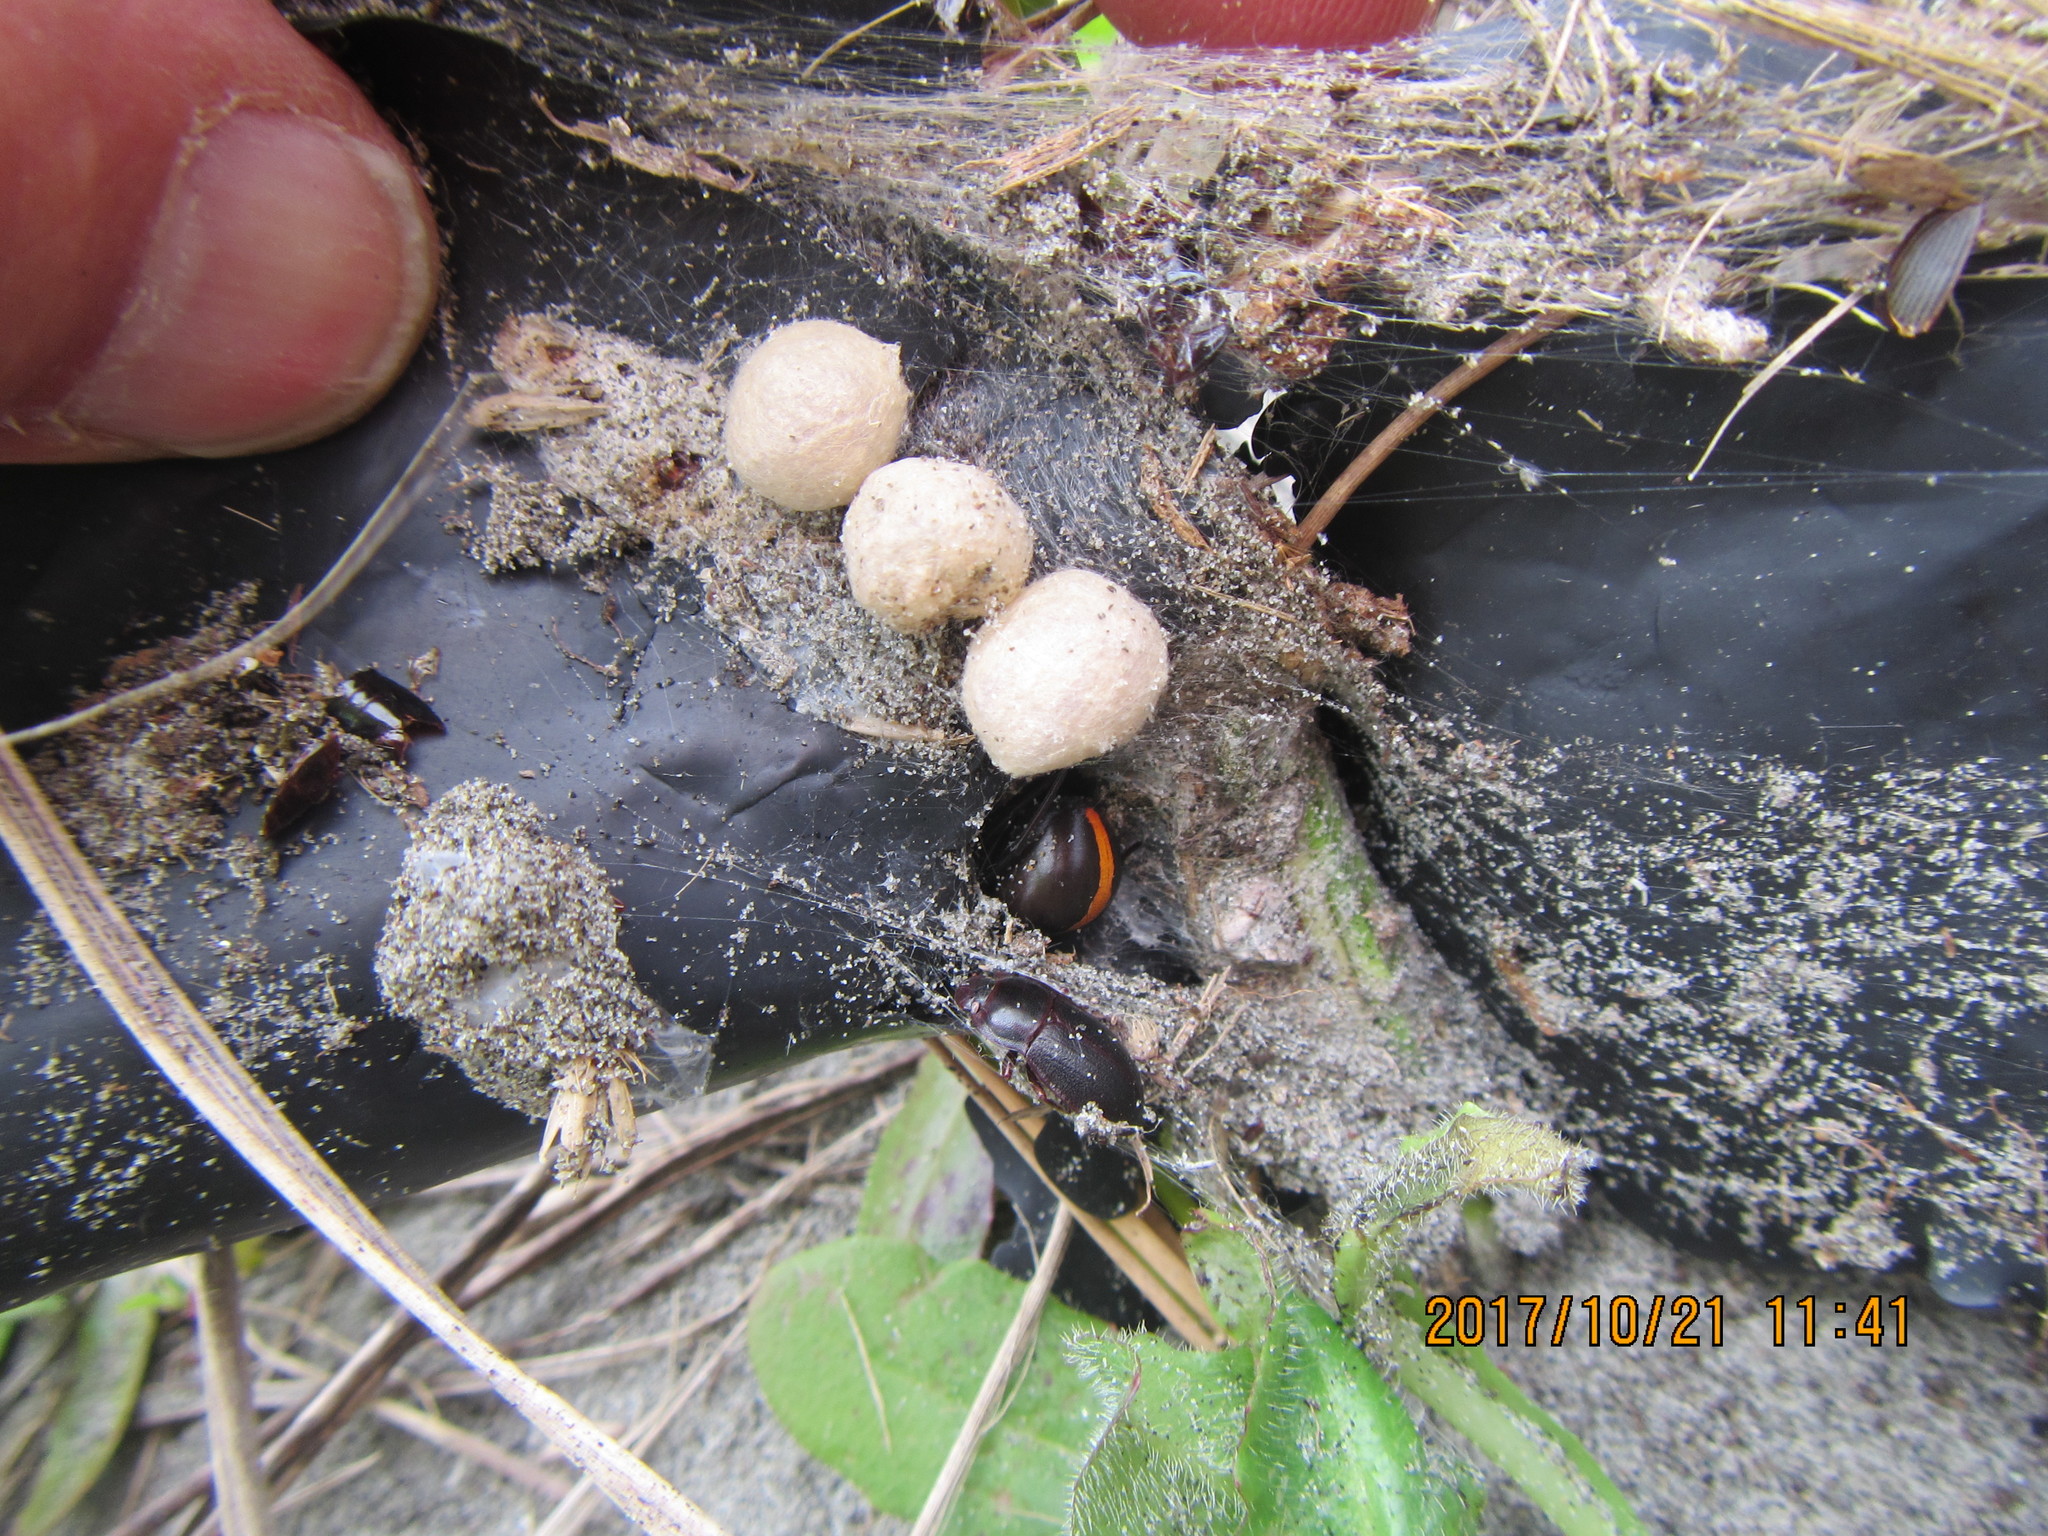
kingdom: Animalia
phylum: Arthropoda
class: Arachnida
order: Araneae
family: Theridiidae
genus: Latrodectus
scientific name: Latrodectus katipo
